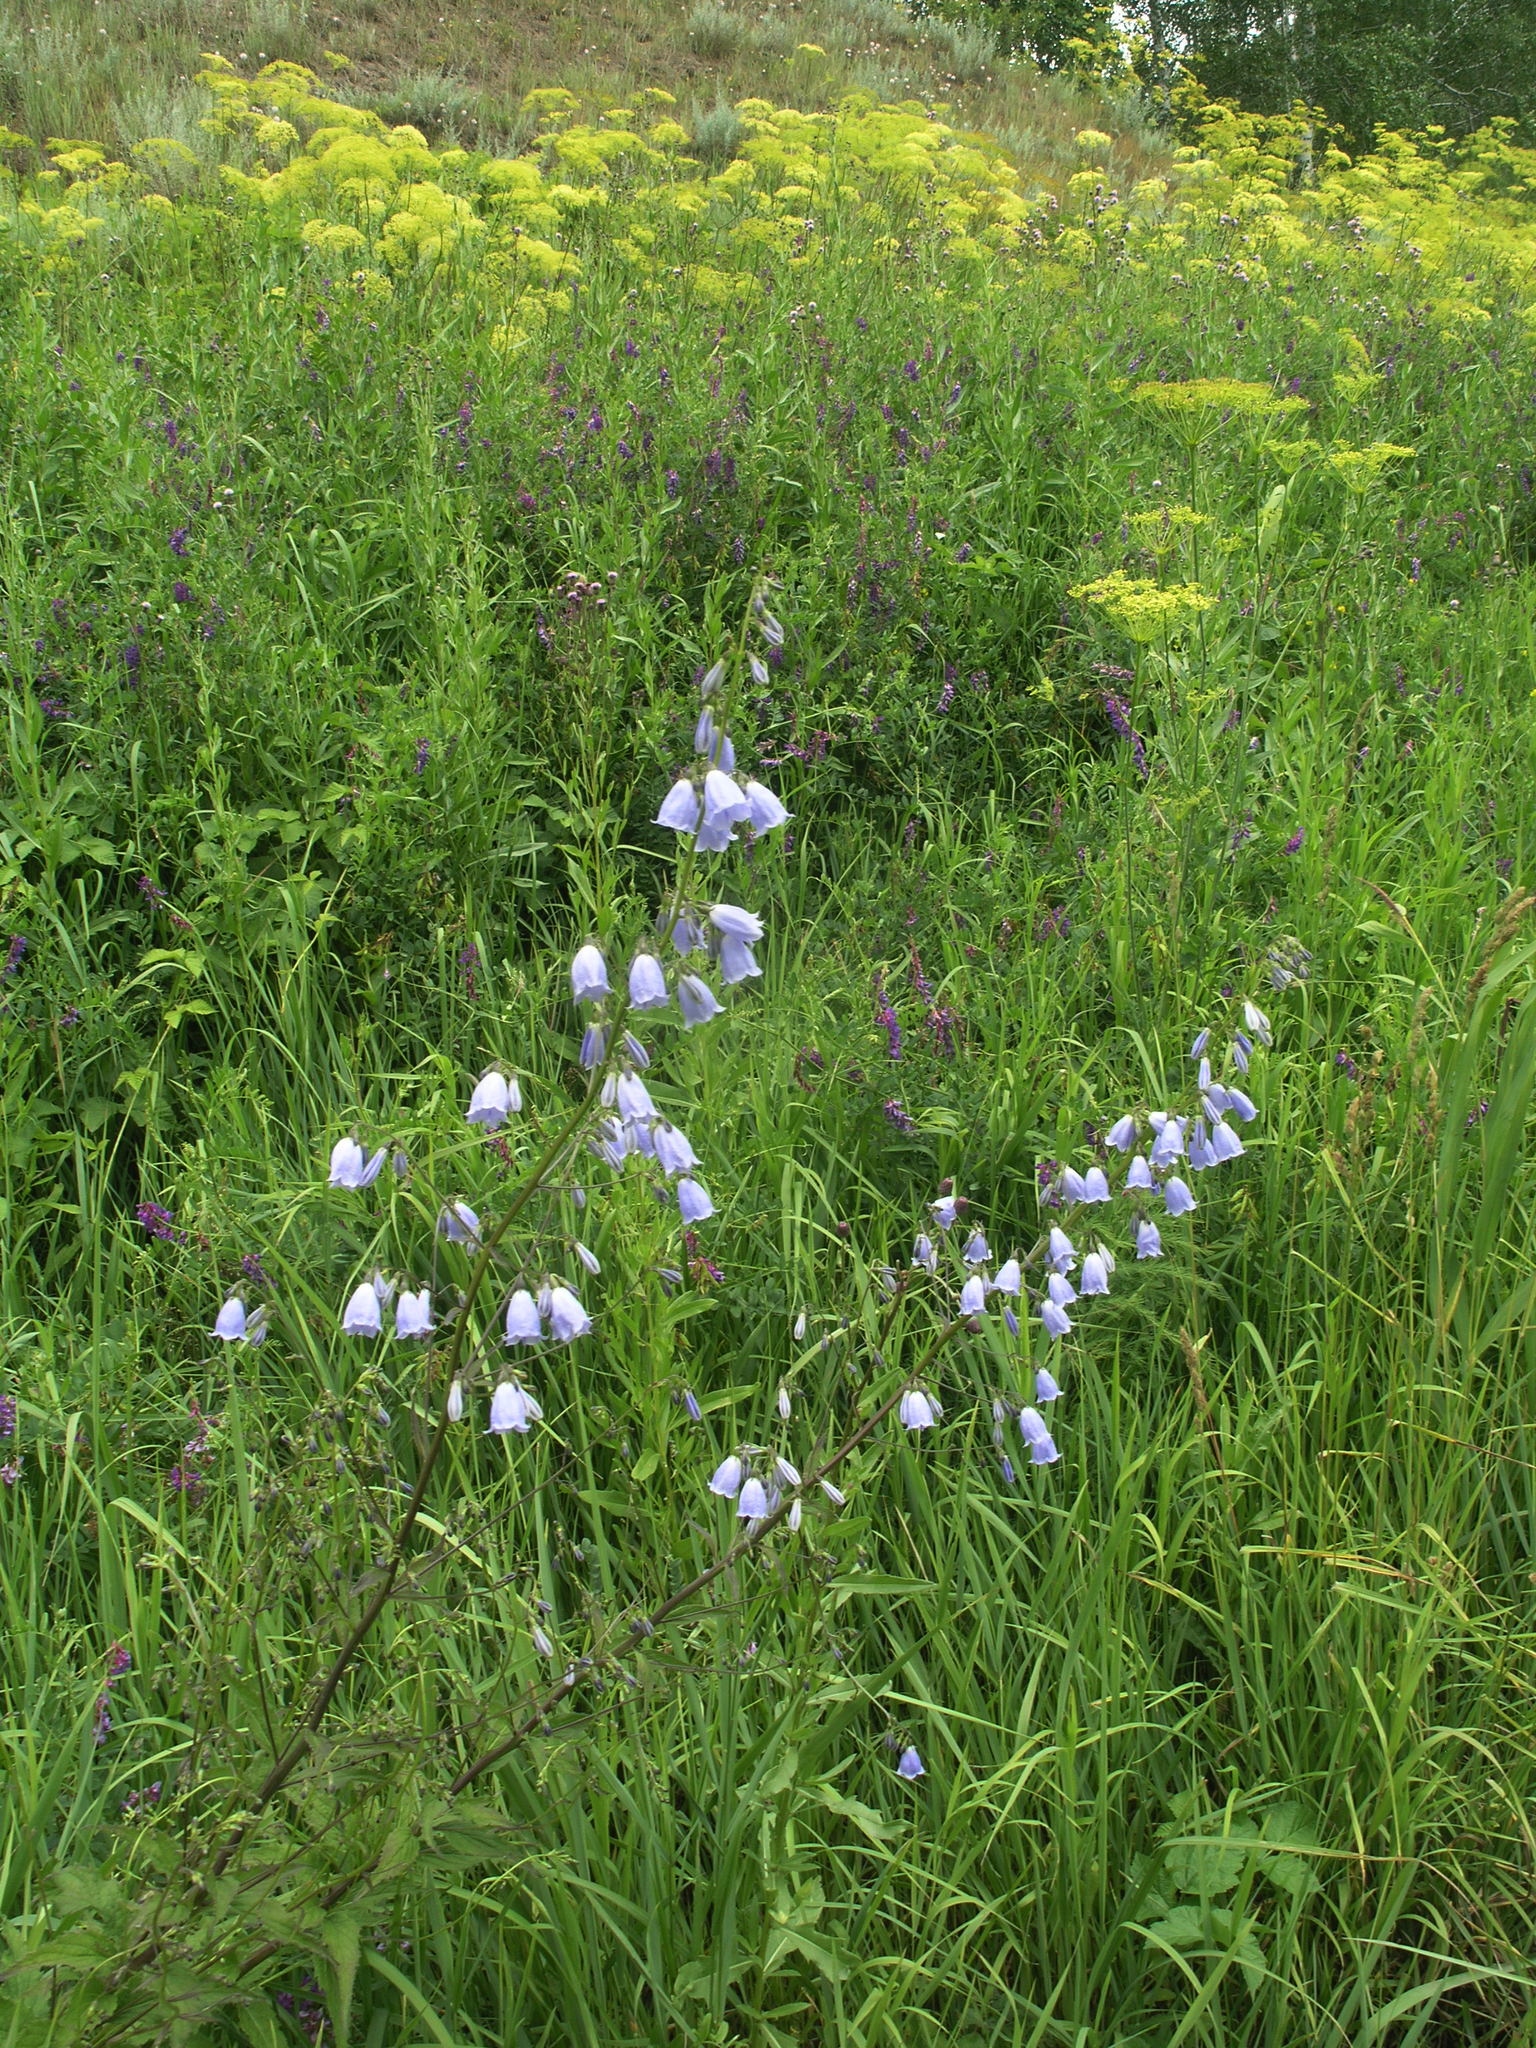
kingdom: Plantae
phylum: Tracheophyta
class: Magnoliopsida
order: Asterales
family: Campanulaceae
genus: Adenophora
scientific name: Adenophora liliifolia
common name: Lilyleaf ladybells
